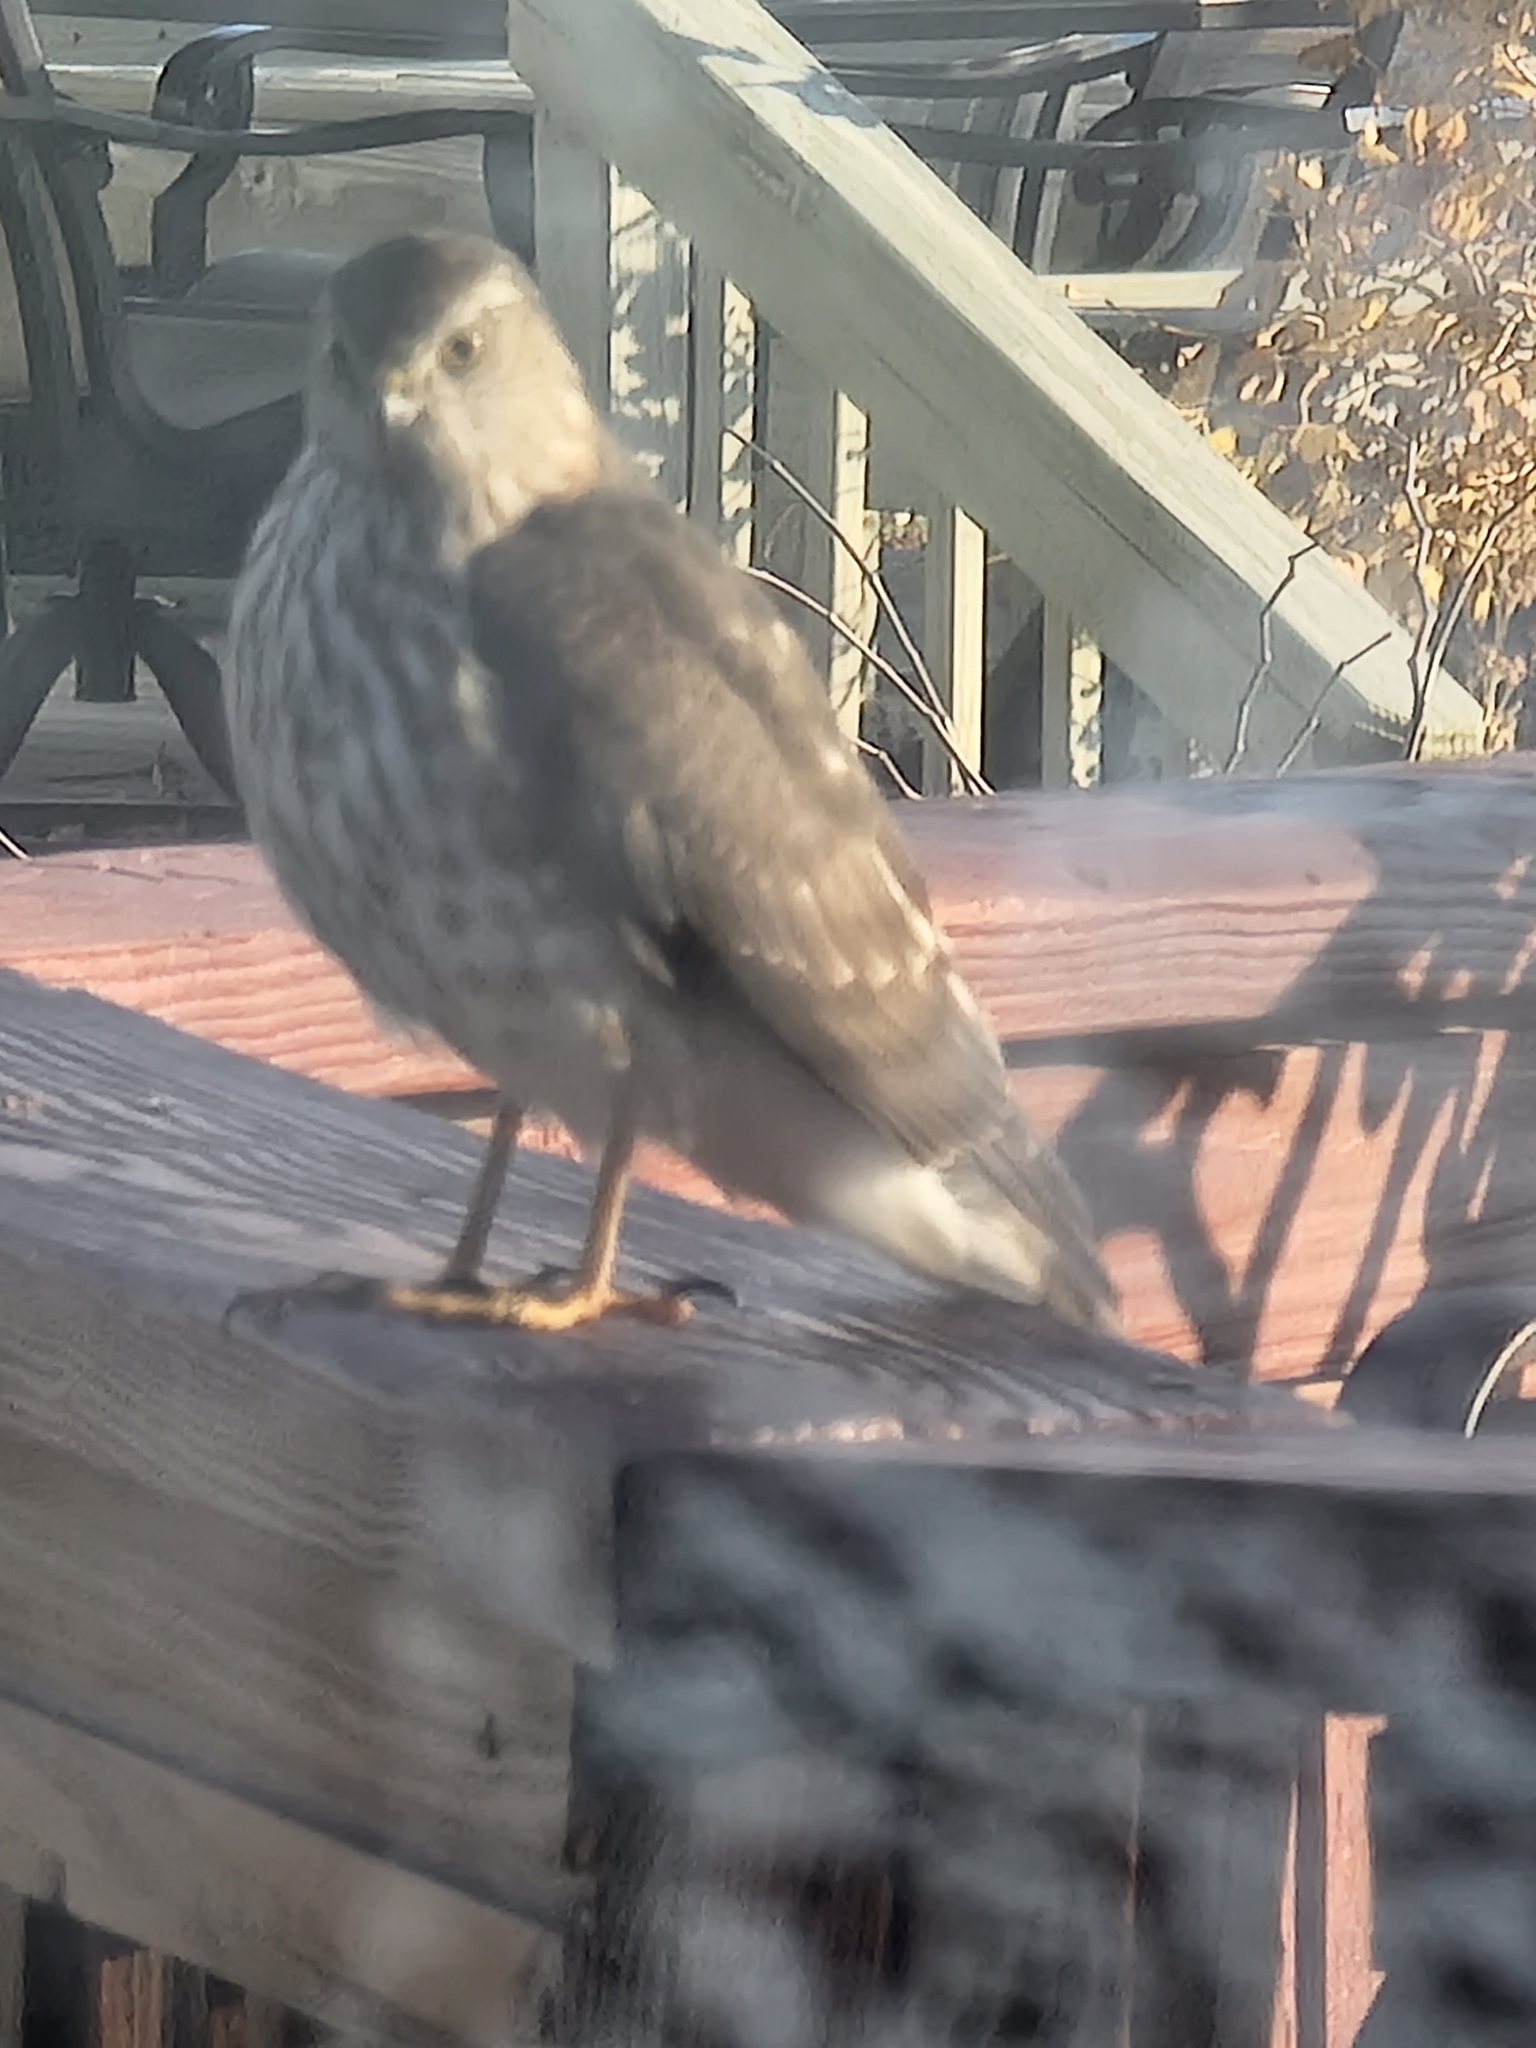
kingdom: Animalia
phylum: Chordata
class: Aves
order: Accipitriformes
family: Accipitridae
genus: Accipiter
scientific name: Accipiter striatus
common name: Sharp-shinned hawk
